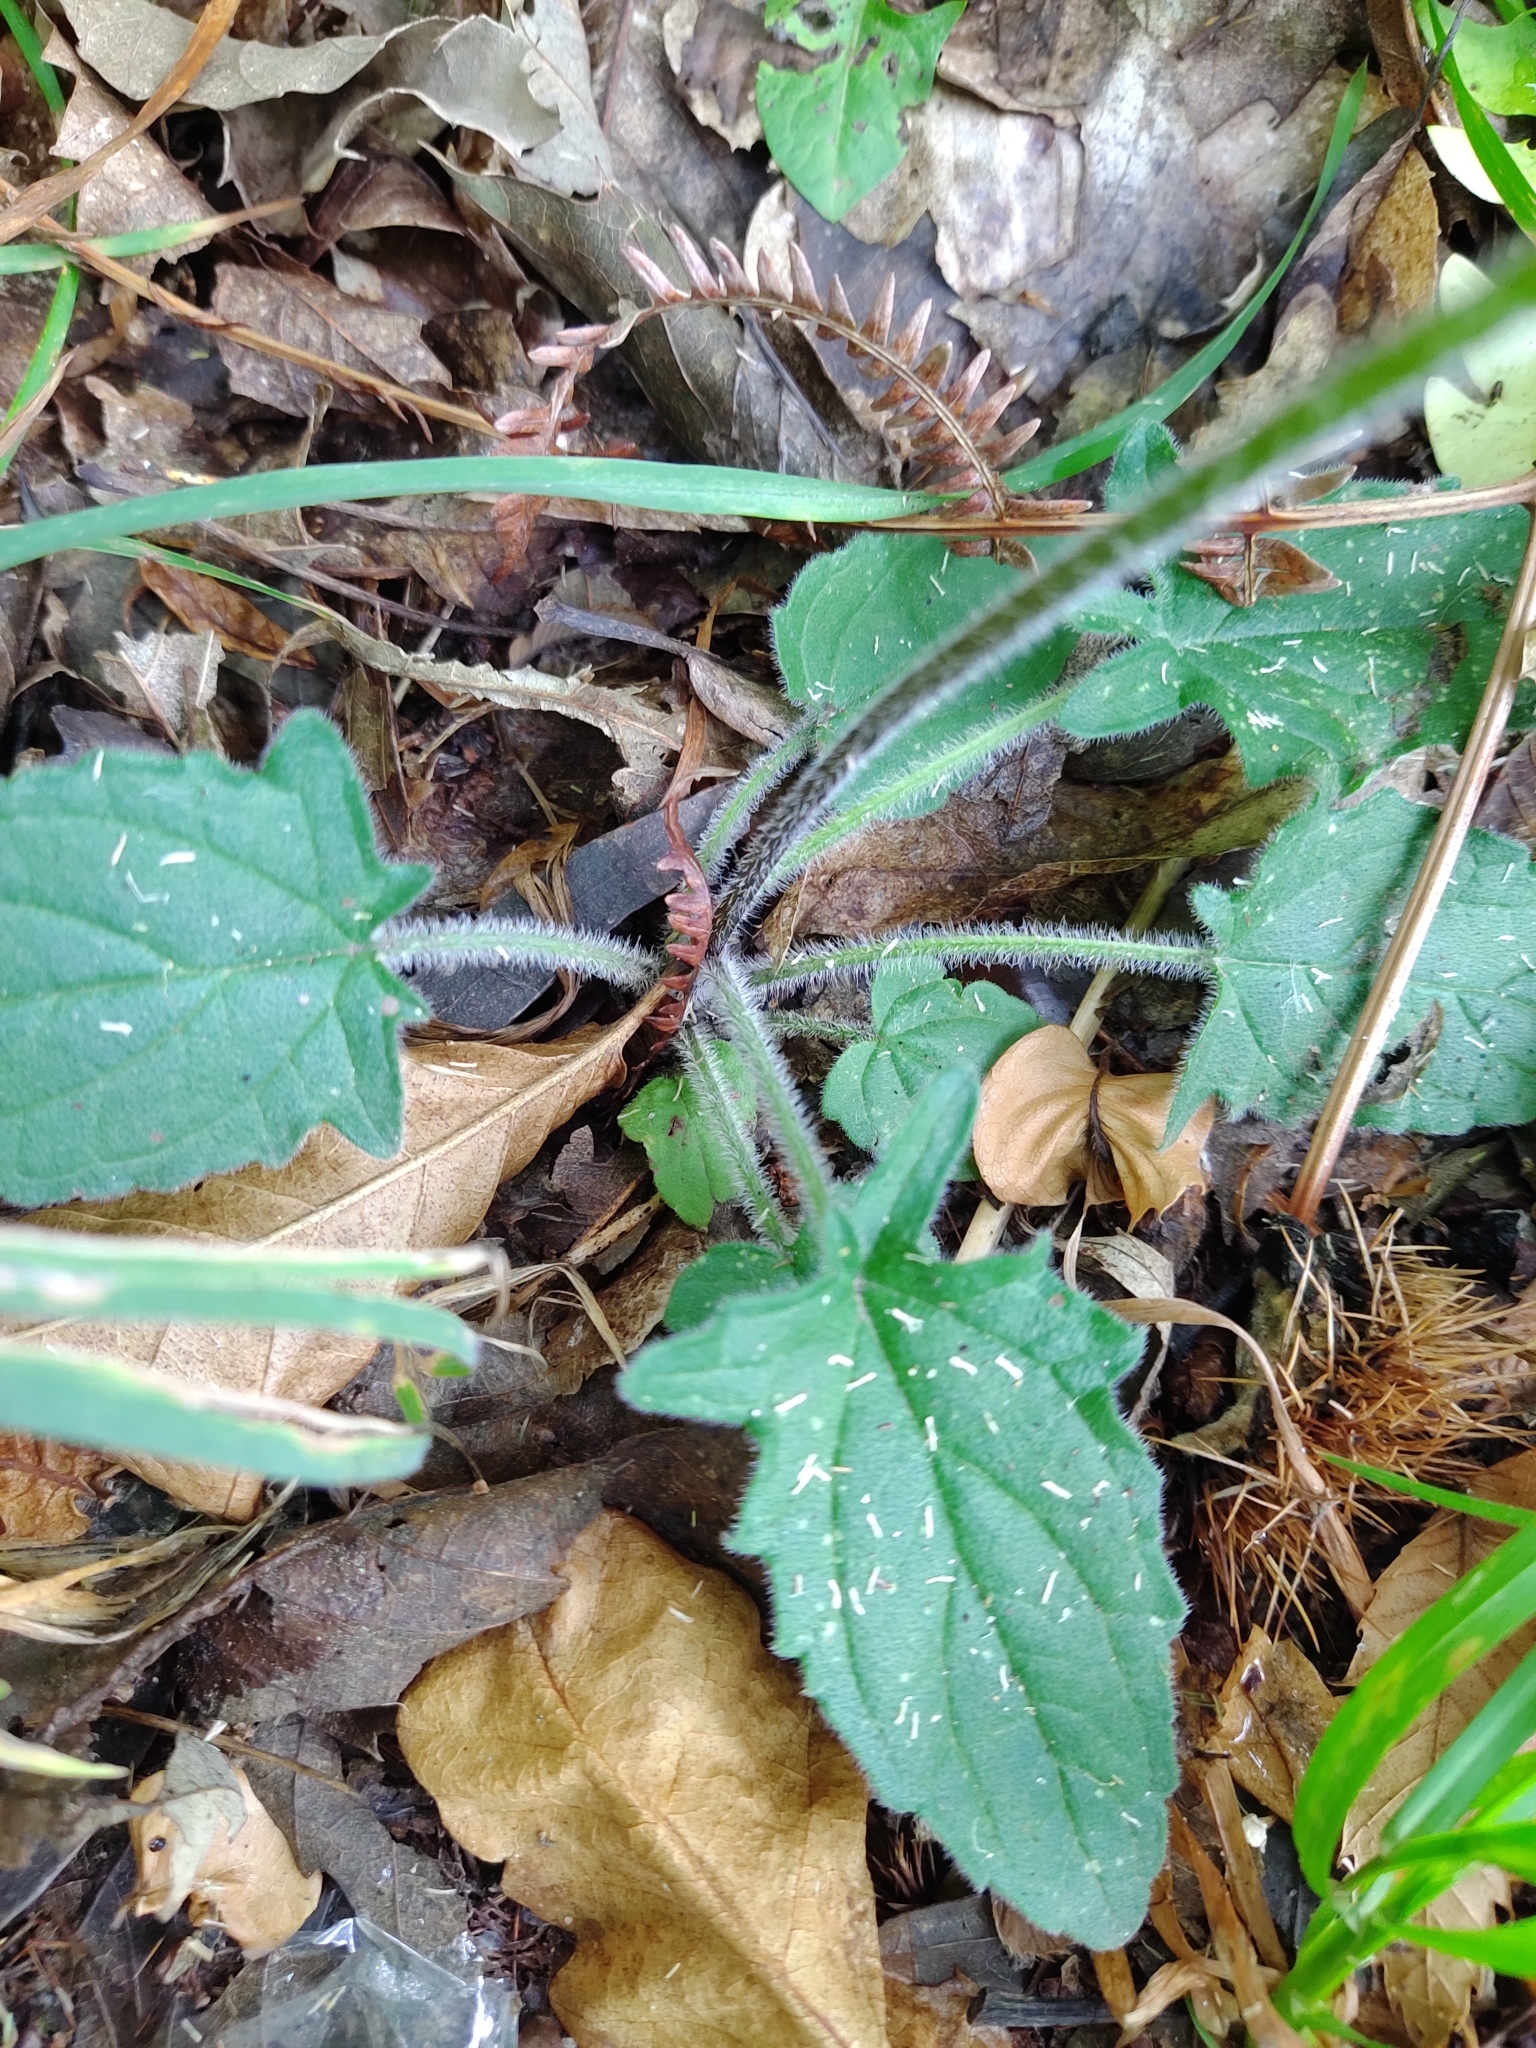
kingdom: Plantae
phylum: Tracheophyta
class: Magnoliopsida
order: Lamiales
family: Lamiaceae
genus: Prunella
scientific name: Prunella grandiflora
